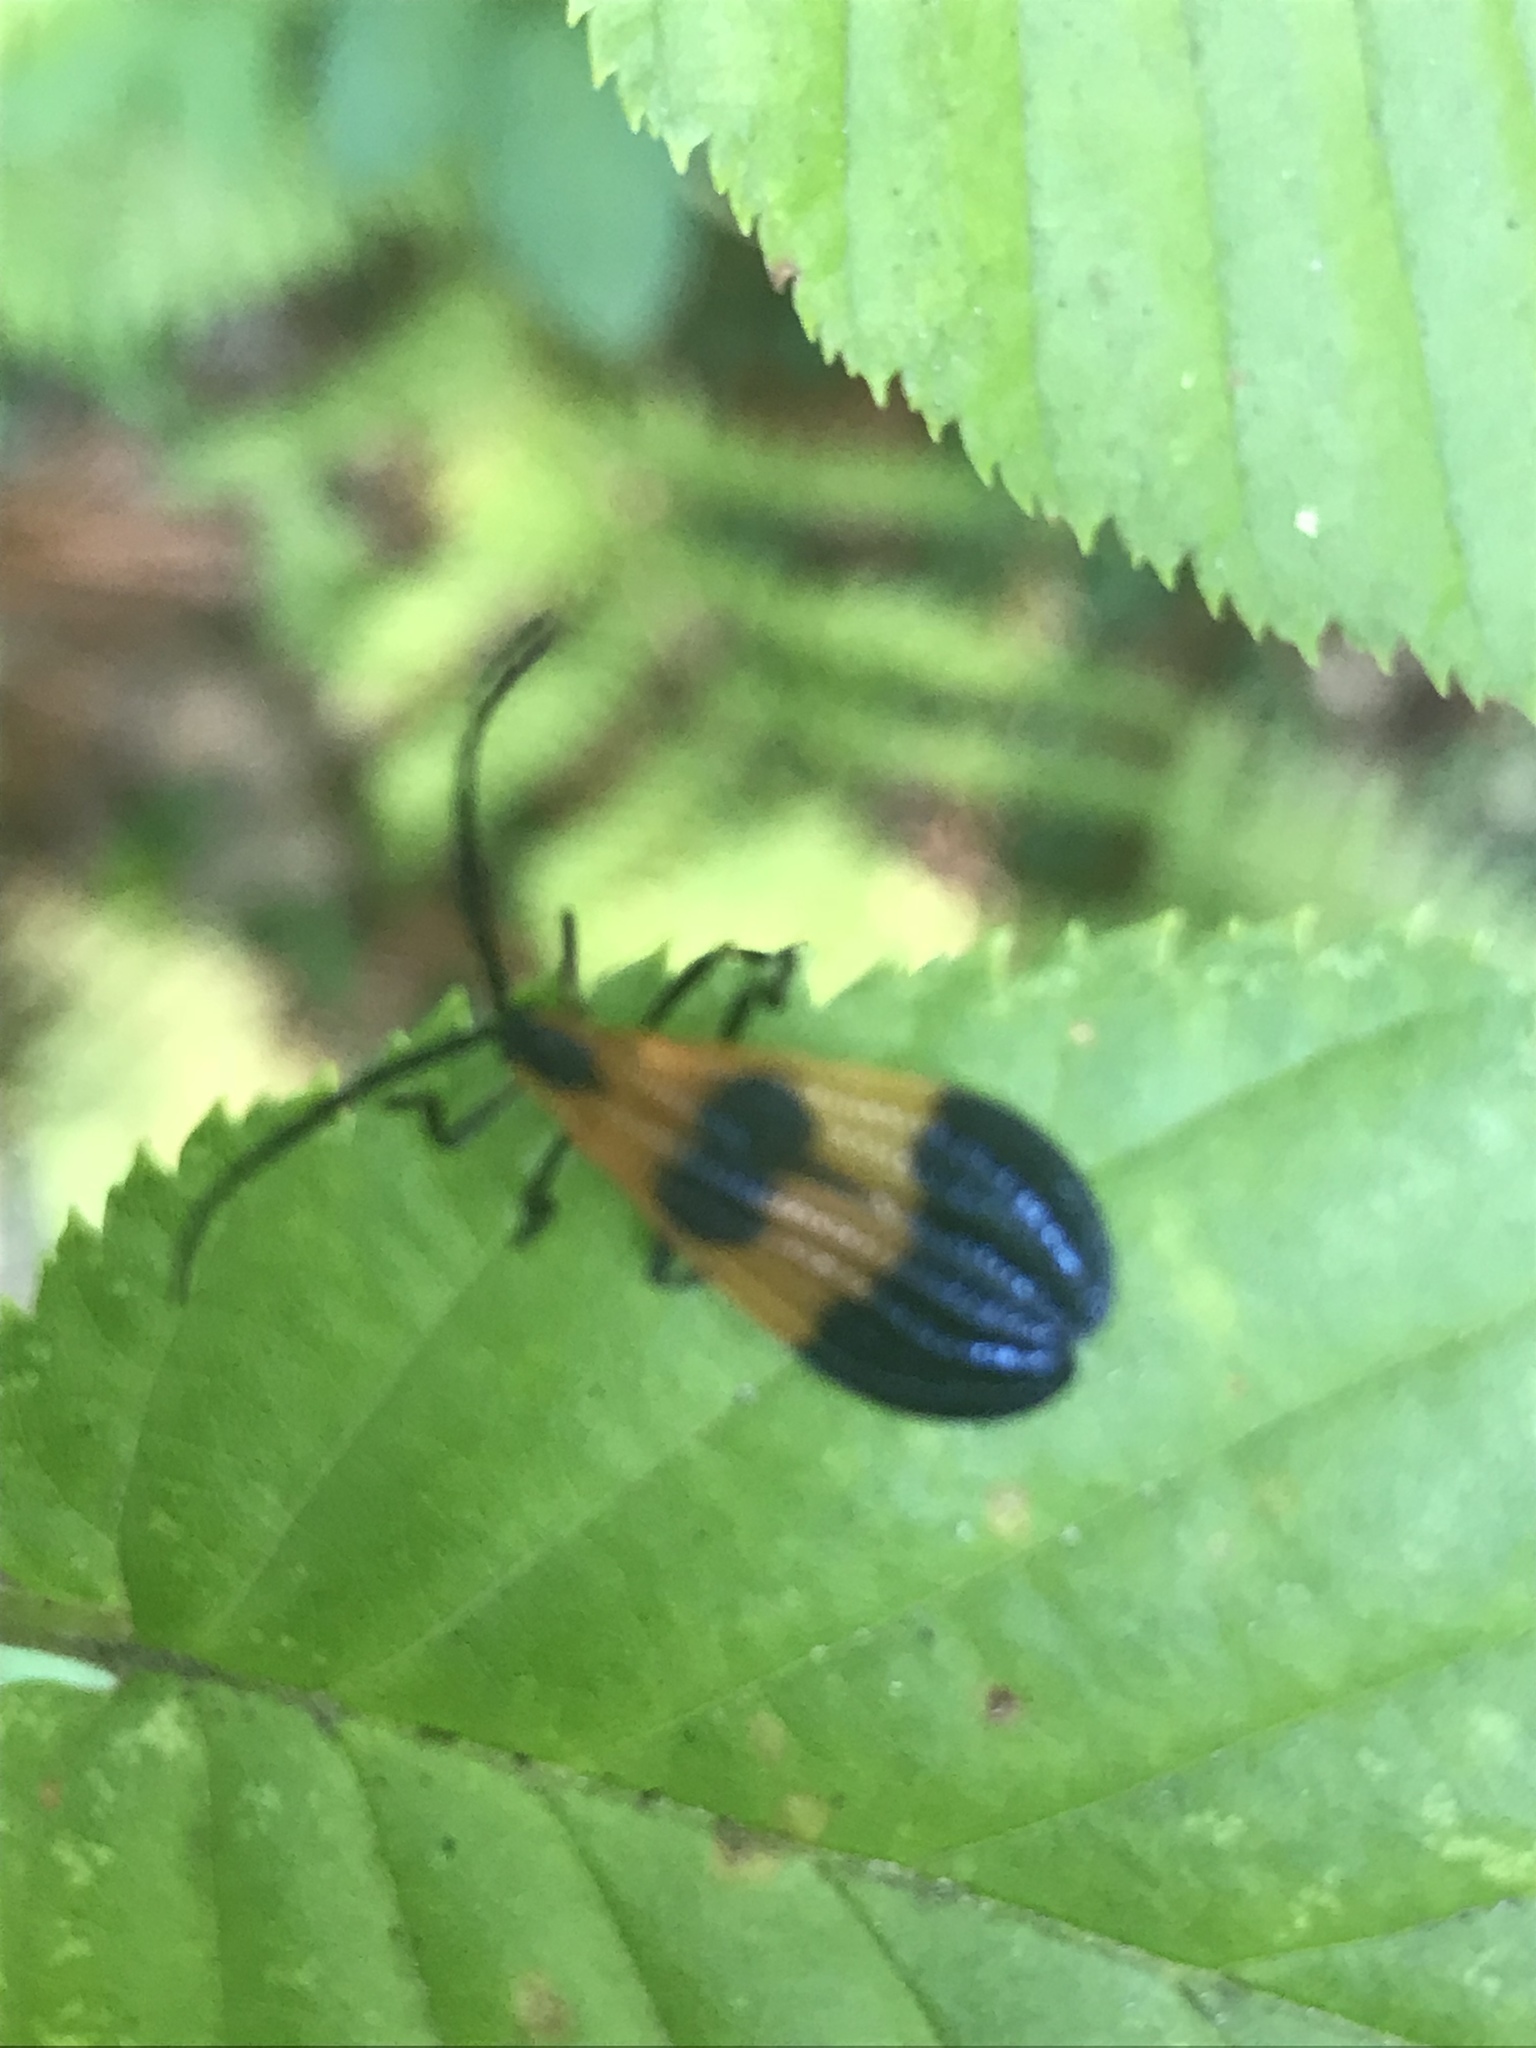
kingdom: Animalia
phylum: Arthropoda
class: Insecta
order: Coleoptera
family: Lycidae
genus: Calopteron
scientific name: Calopteron terminale
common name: End band net-winged beetle
